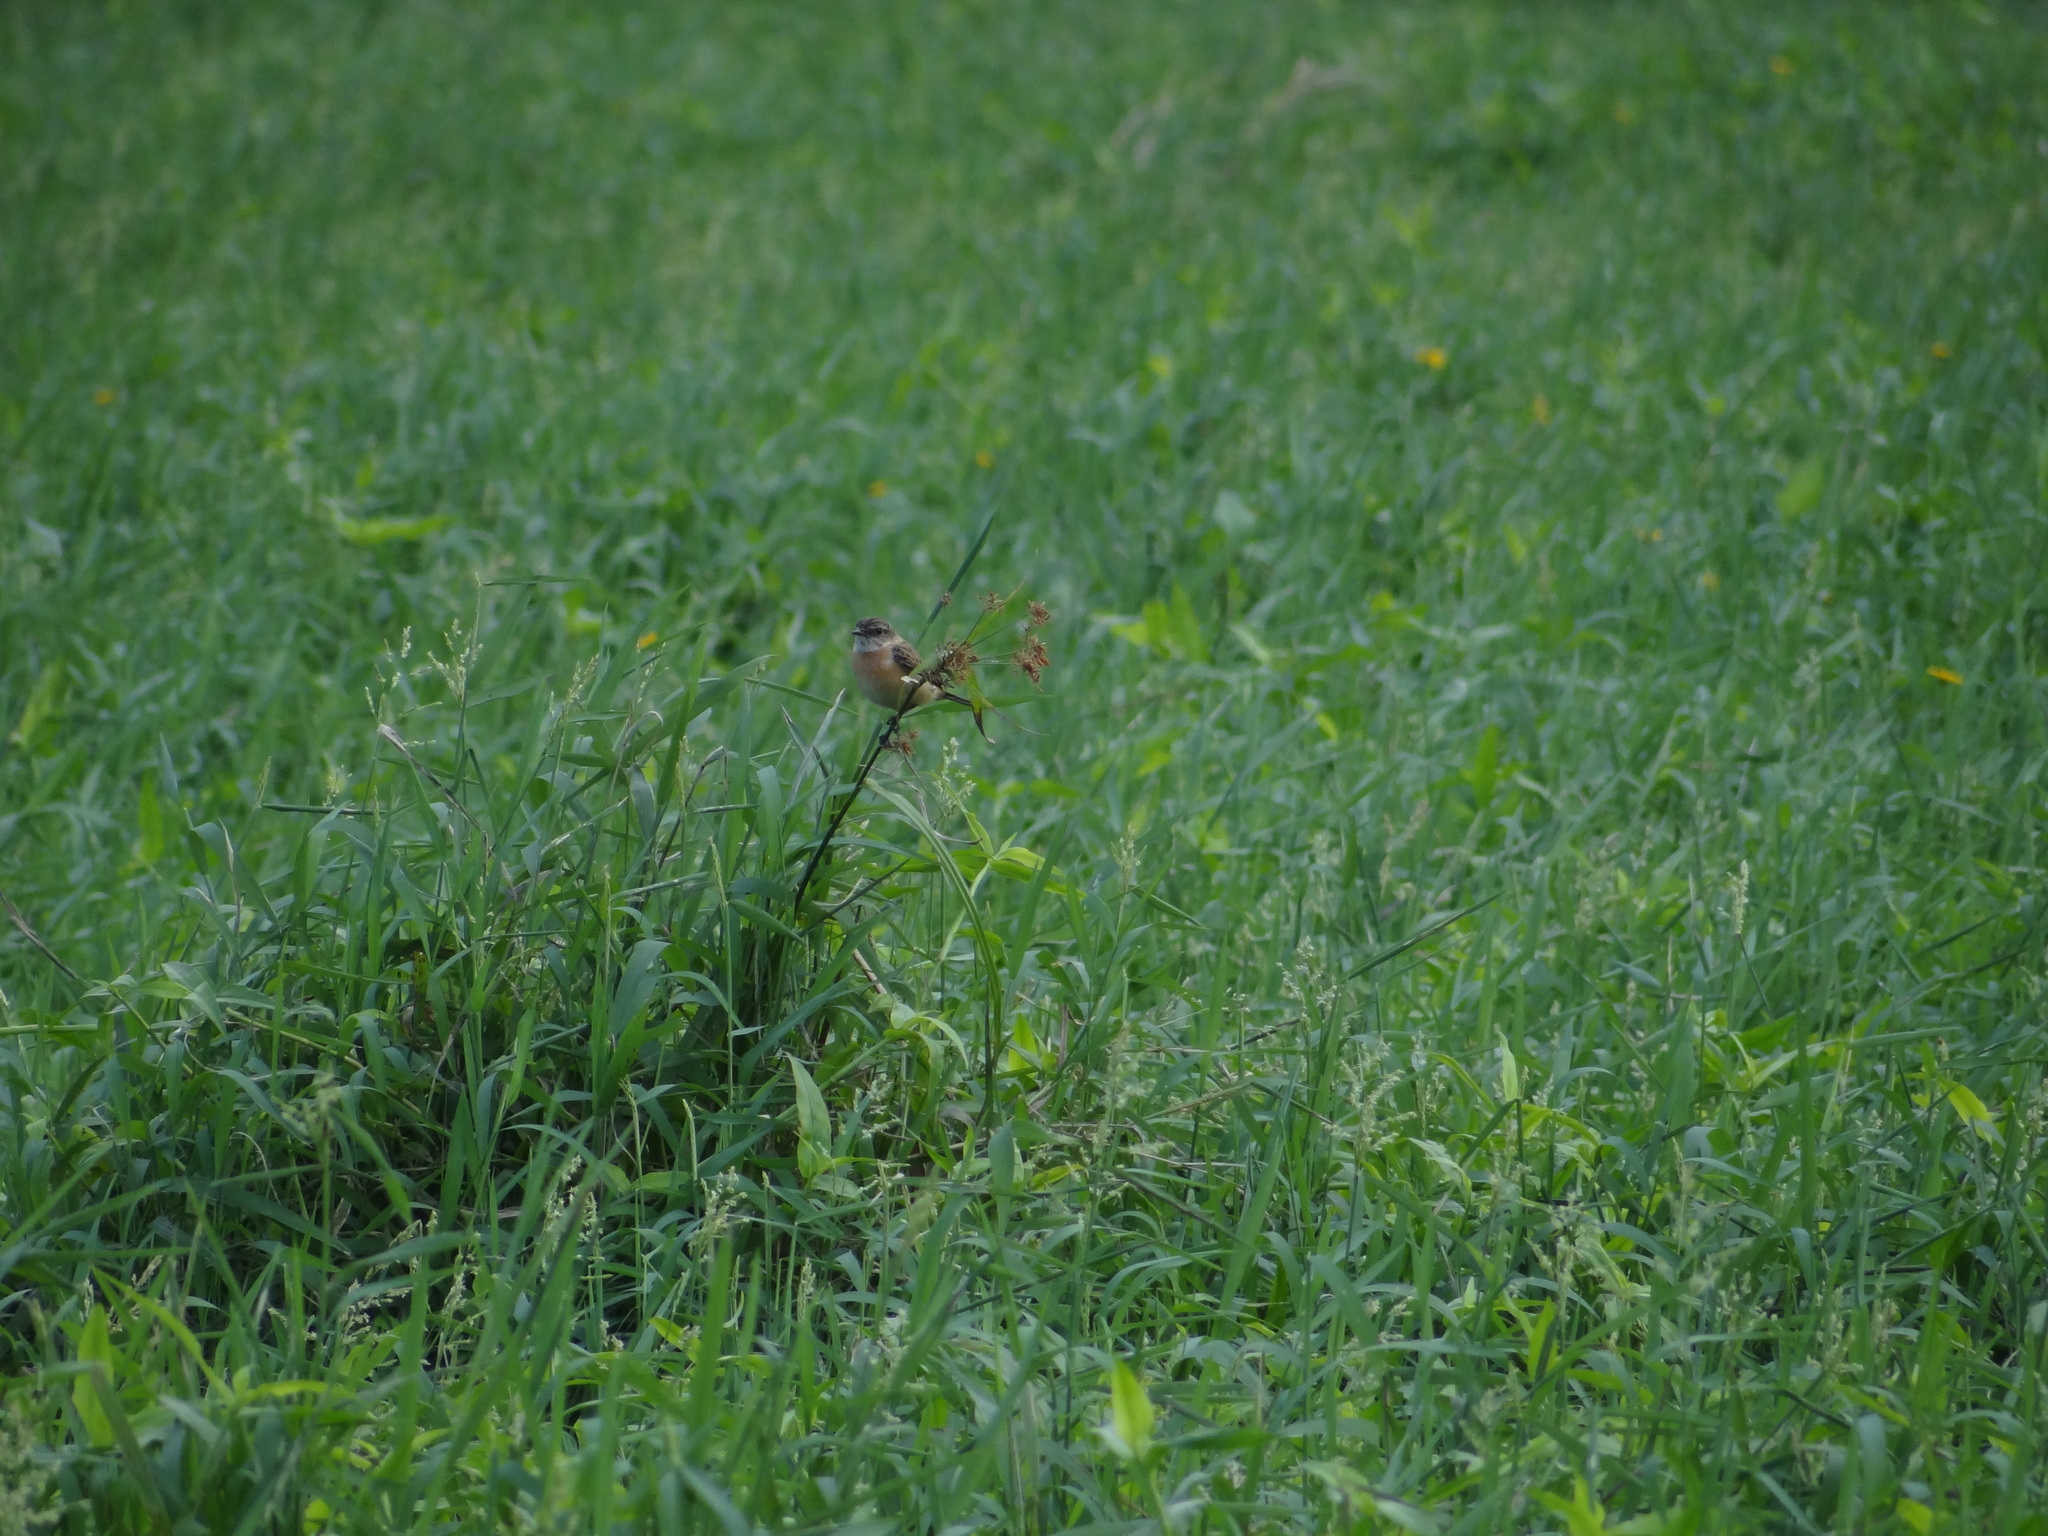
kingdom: Animalia
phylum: Chordata
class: Aves
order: Passeriformes
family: Muscicapidae
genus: Saxicola
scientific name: Saxicola stejnegeri
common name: Stejneger's stonechat
